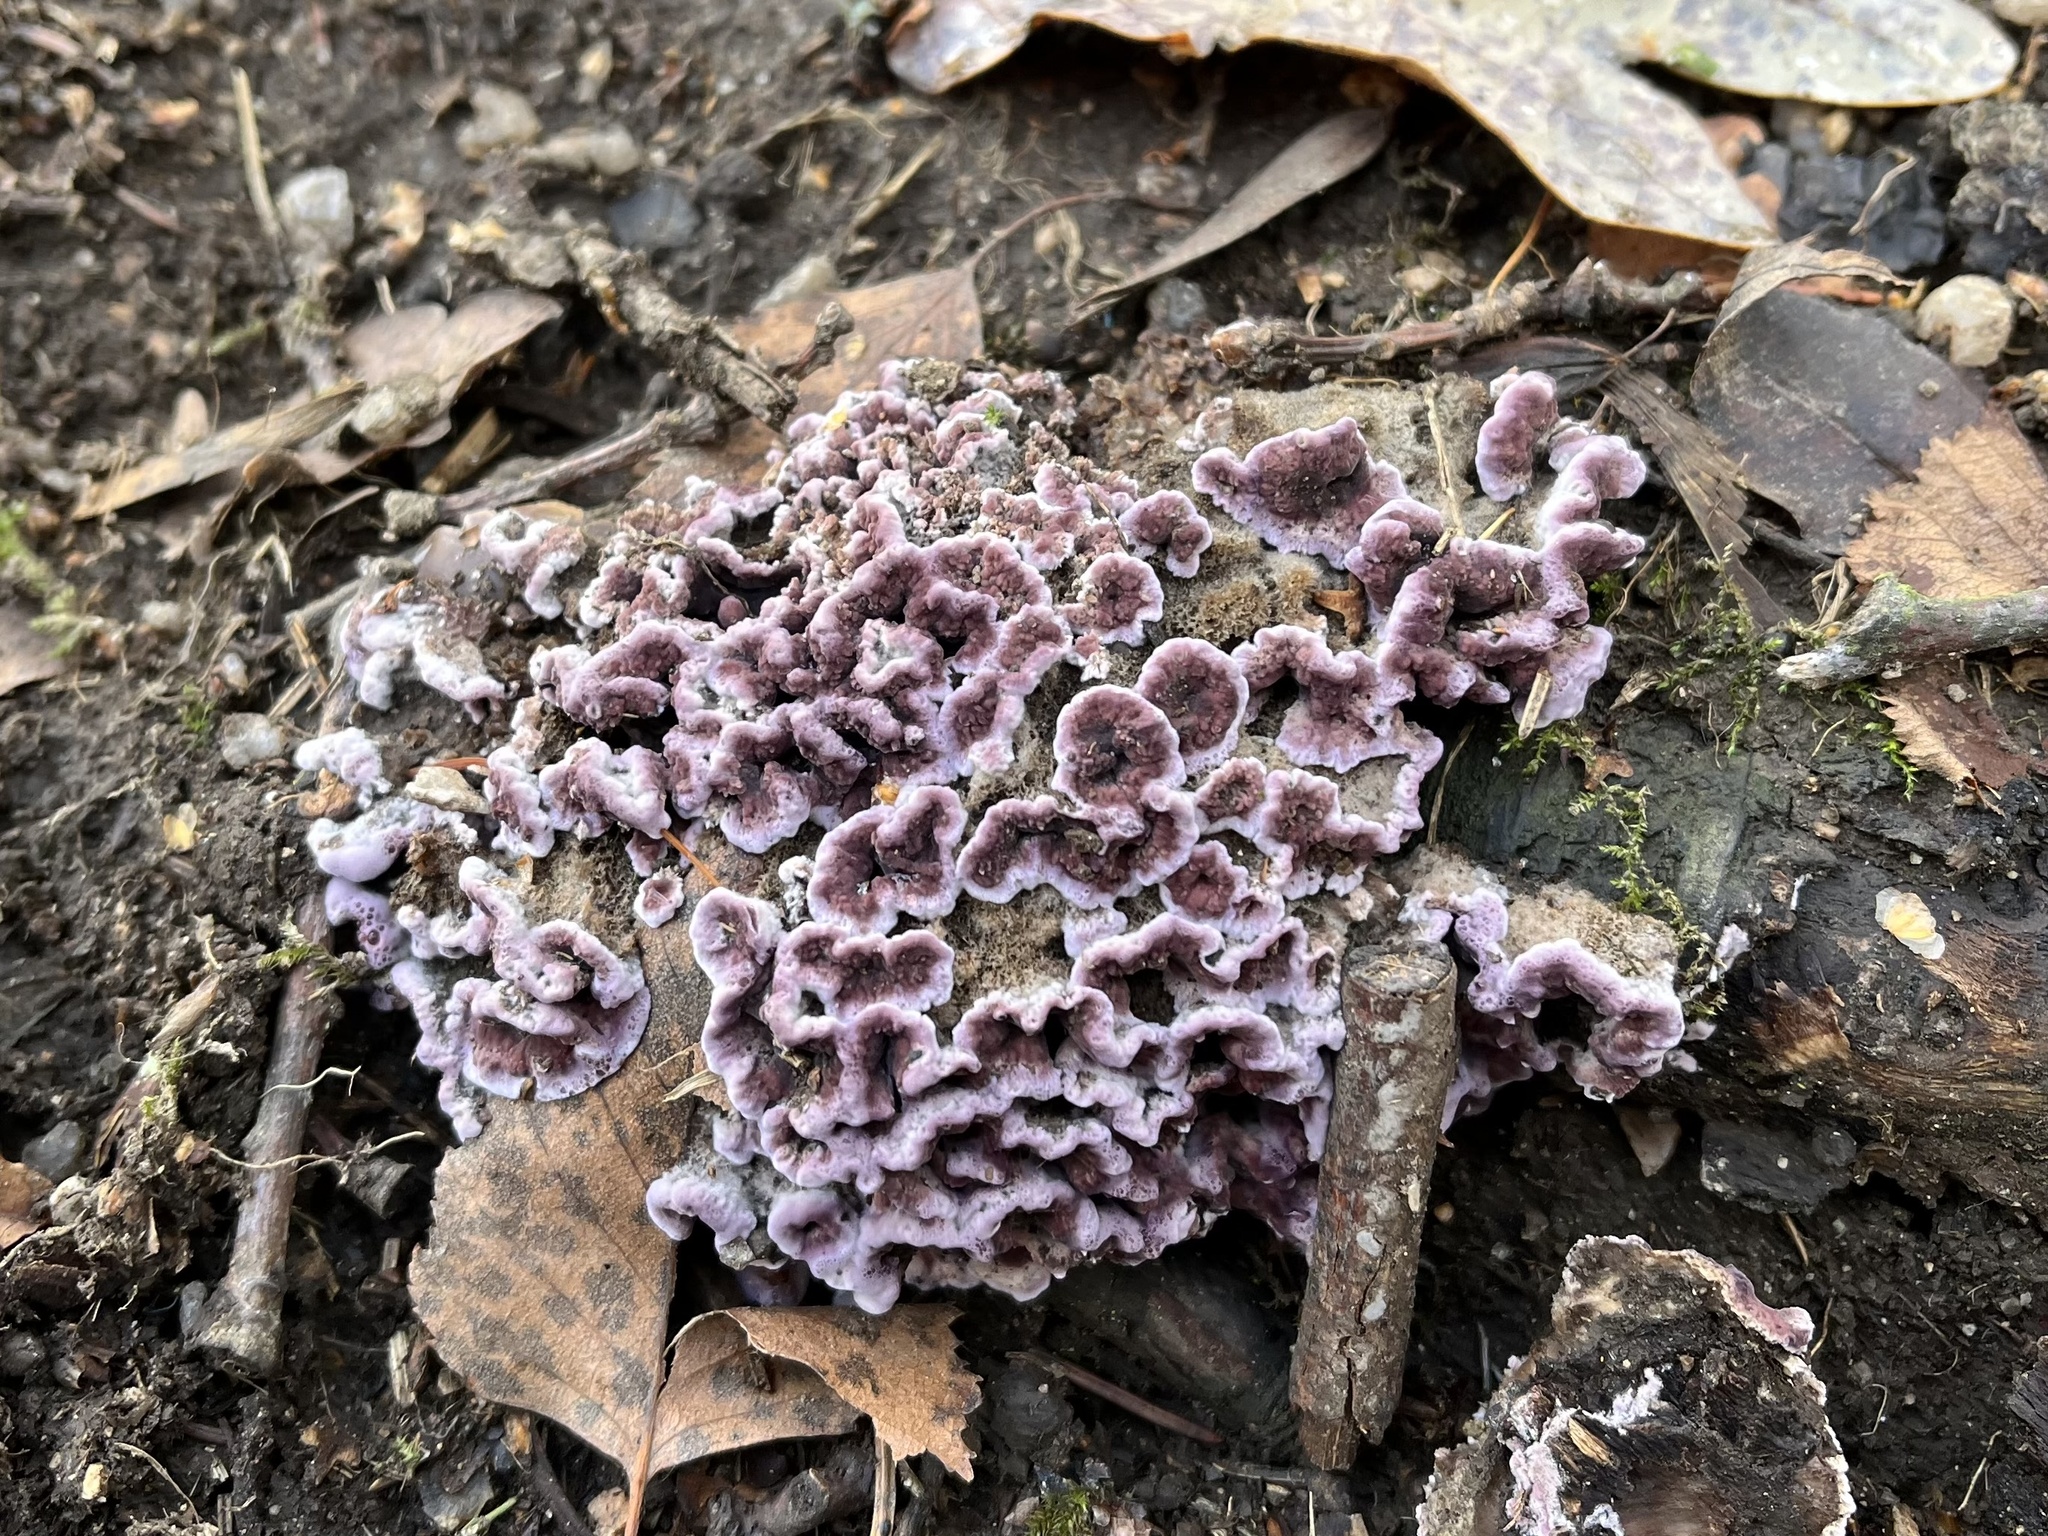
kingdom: Fungi
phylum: Basidiomycota
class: Agaricomycetes
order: Agaricales
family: Cyphellaceae
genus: Chondrostereum
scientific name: Chondrostereum purpureum
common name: Silver leaf disease
